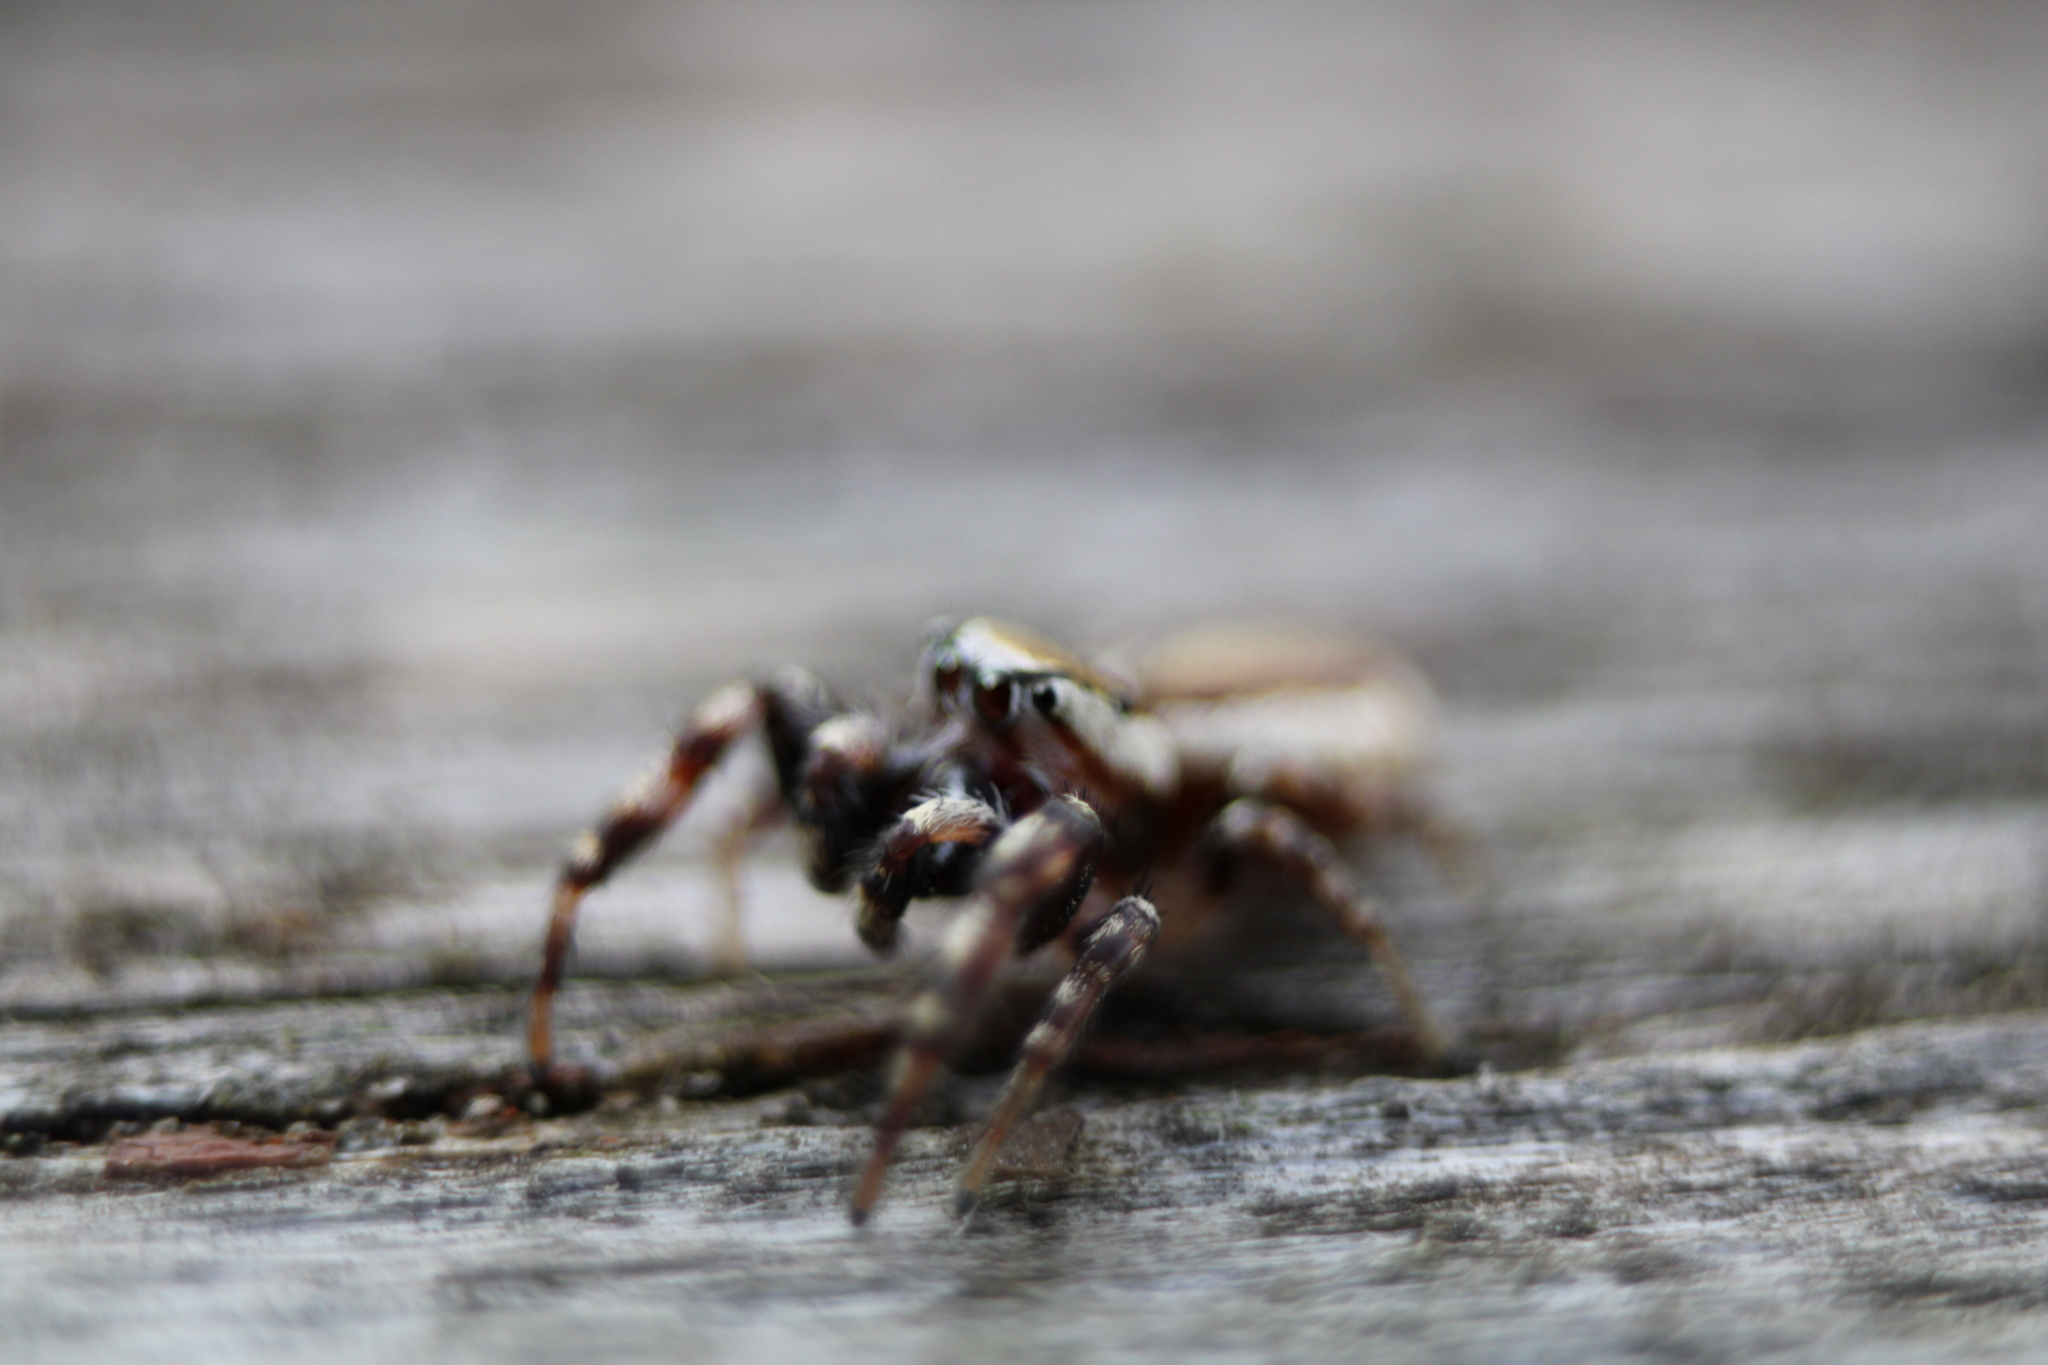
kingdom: Animalia
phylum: Arthropoda
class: Arachnida
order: Araneae
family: Salticidae
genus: Pelegrina
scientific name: Pelegrina proterva
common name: Common white-cheeked jumping spider
